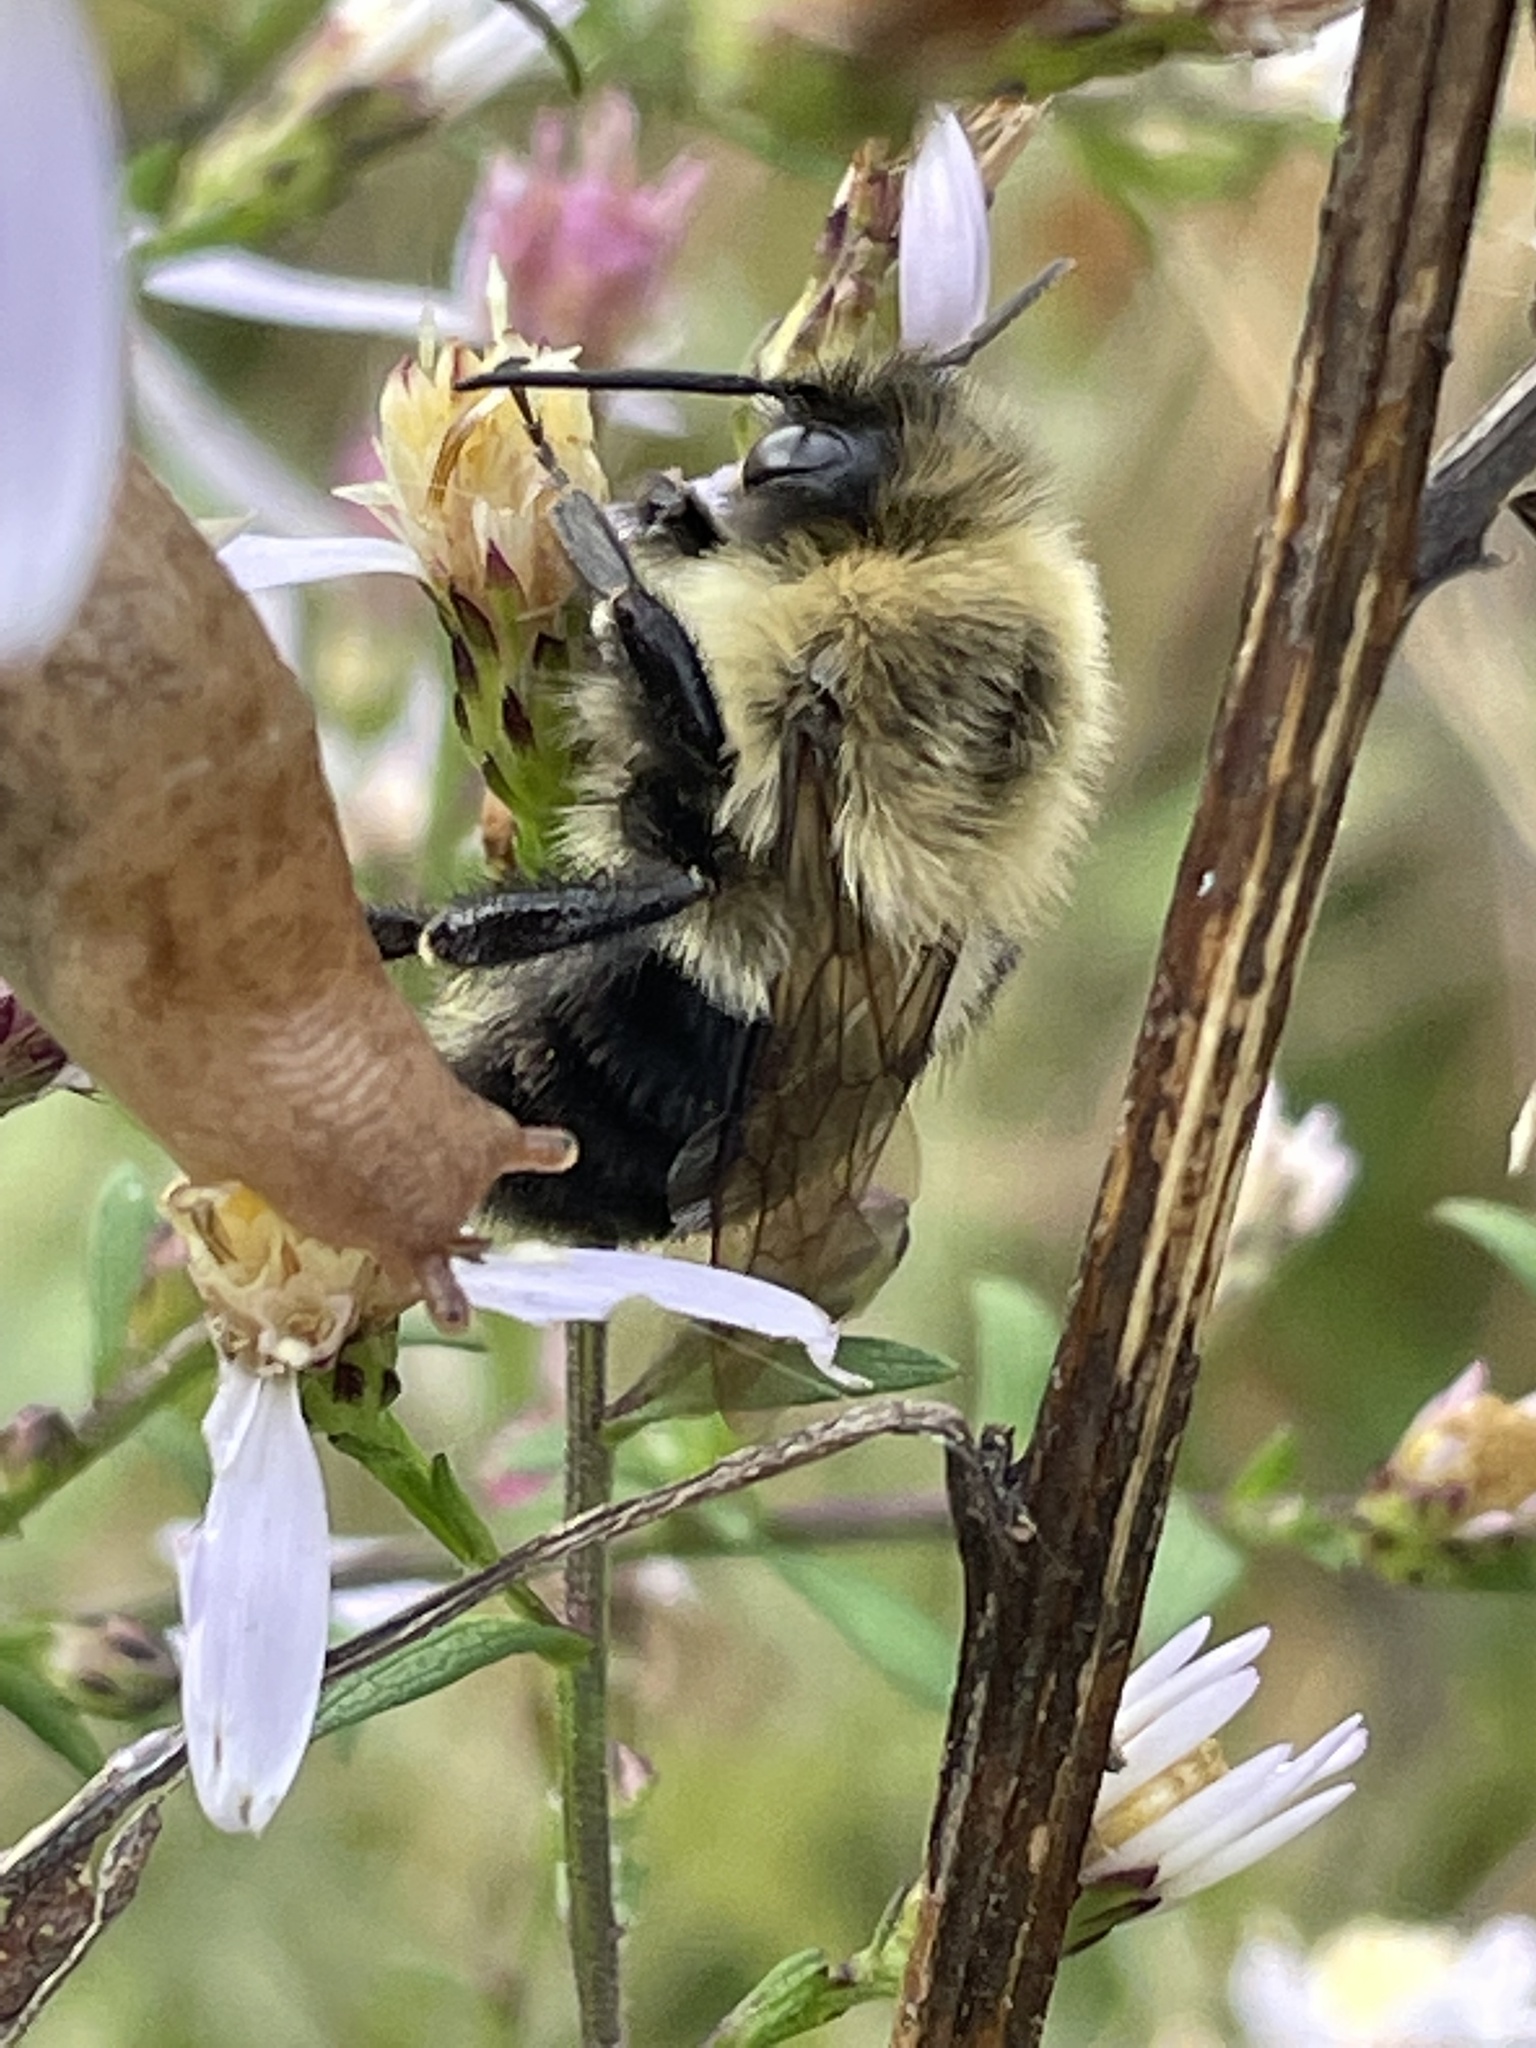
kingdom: Animalia
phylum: Arthropoda
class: Insecta
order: Hymenoptera
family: Apidae
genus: Bombus
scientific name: Bombus impatiens
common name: Common eastern bumble bee
